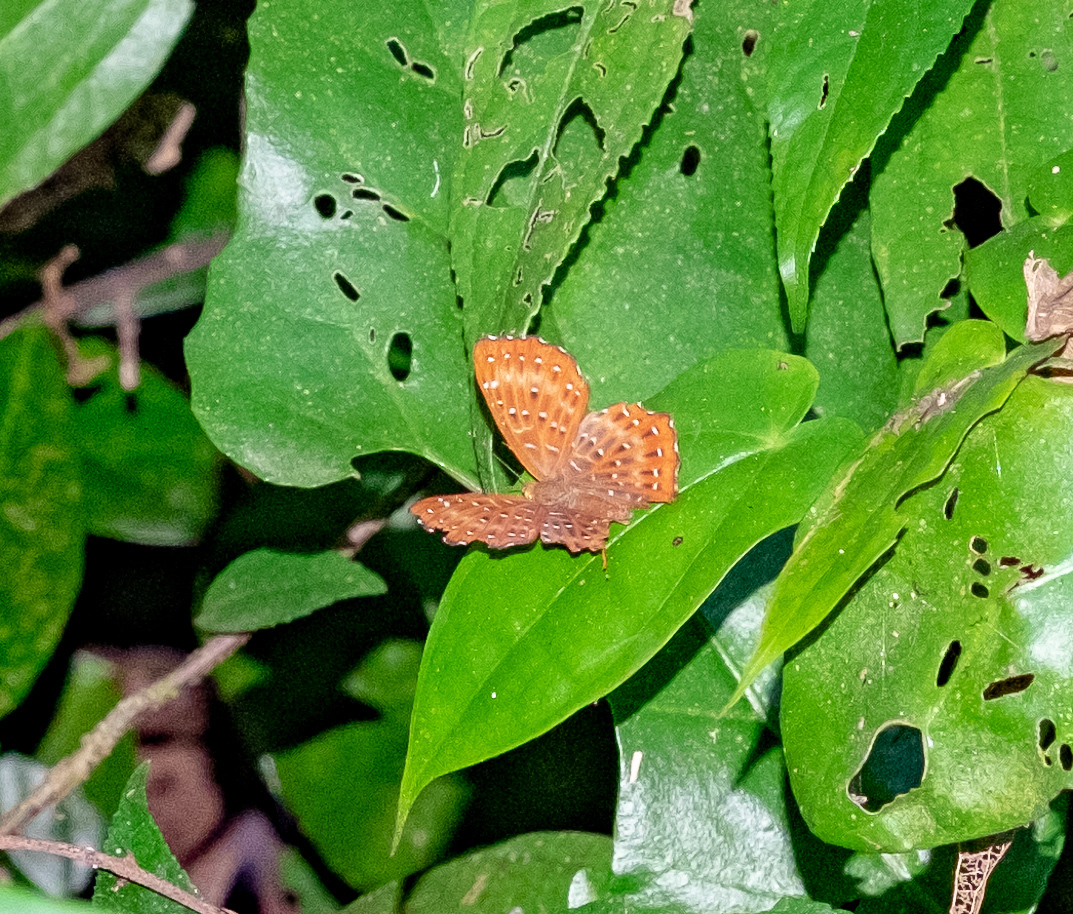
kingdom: Animalia
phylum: Arthropoda
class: Insecta
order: Lepidoptera
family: Riodinidae
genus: Zemeros
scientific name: Zemeros flegyas
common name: Punchinello
